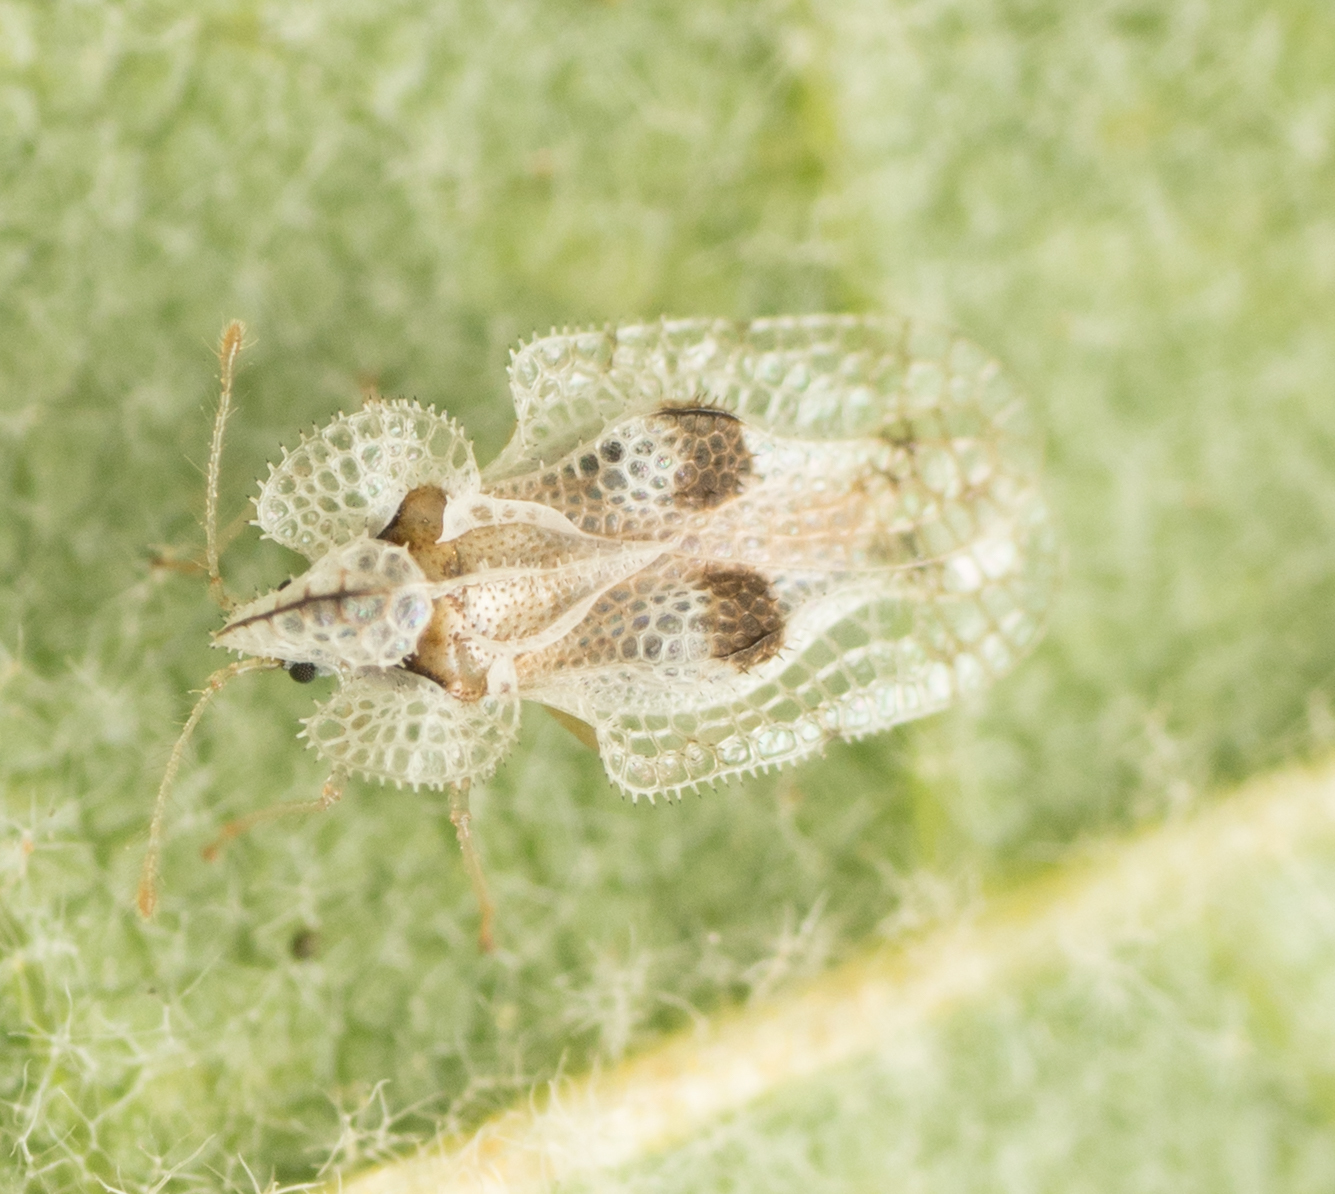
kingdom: Animalia
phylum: Arthropoda
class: Insecta
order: Hemiptera
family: Tingidae
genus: Corythucha
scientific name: Corythucha confraterna
